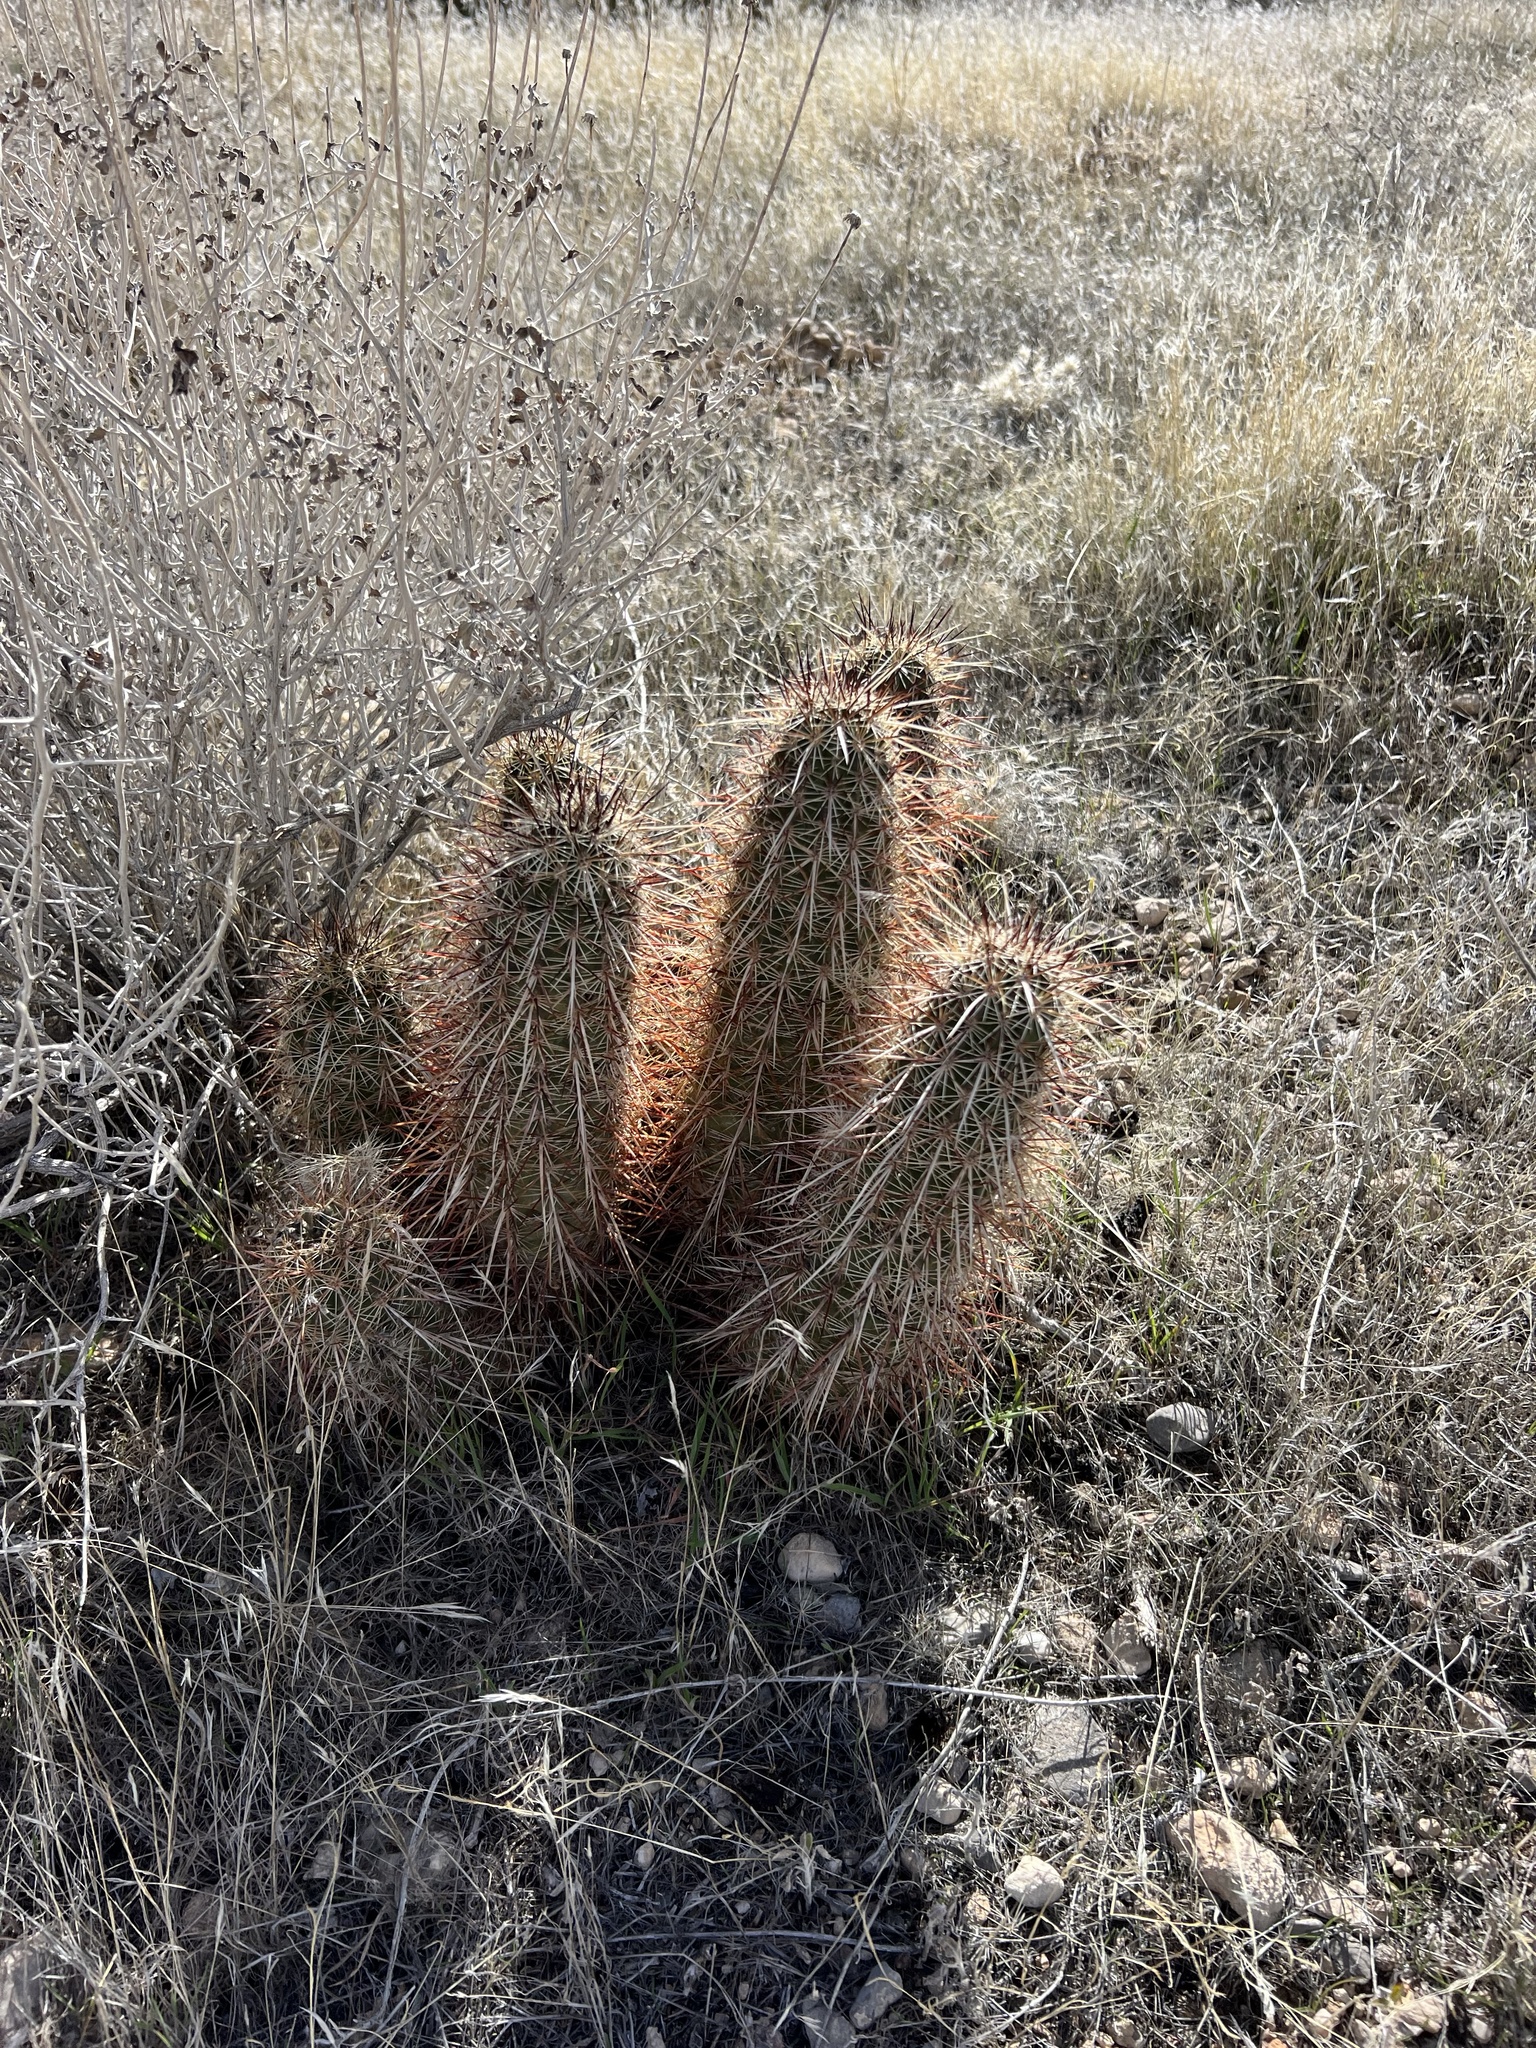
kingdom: Plantae
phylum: Tracheophyta
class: Magnoliopsida
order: Caryophyllales
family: Cactaceae
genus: Echinocereus
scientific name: Echinocereus engelmannii
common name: Engelmann's hedgehog cactus
